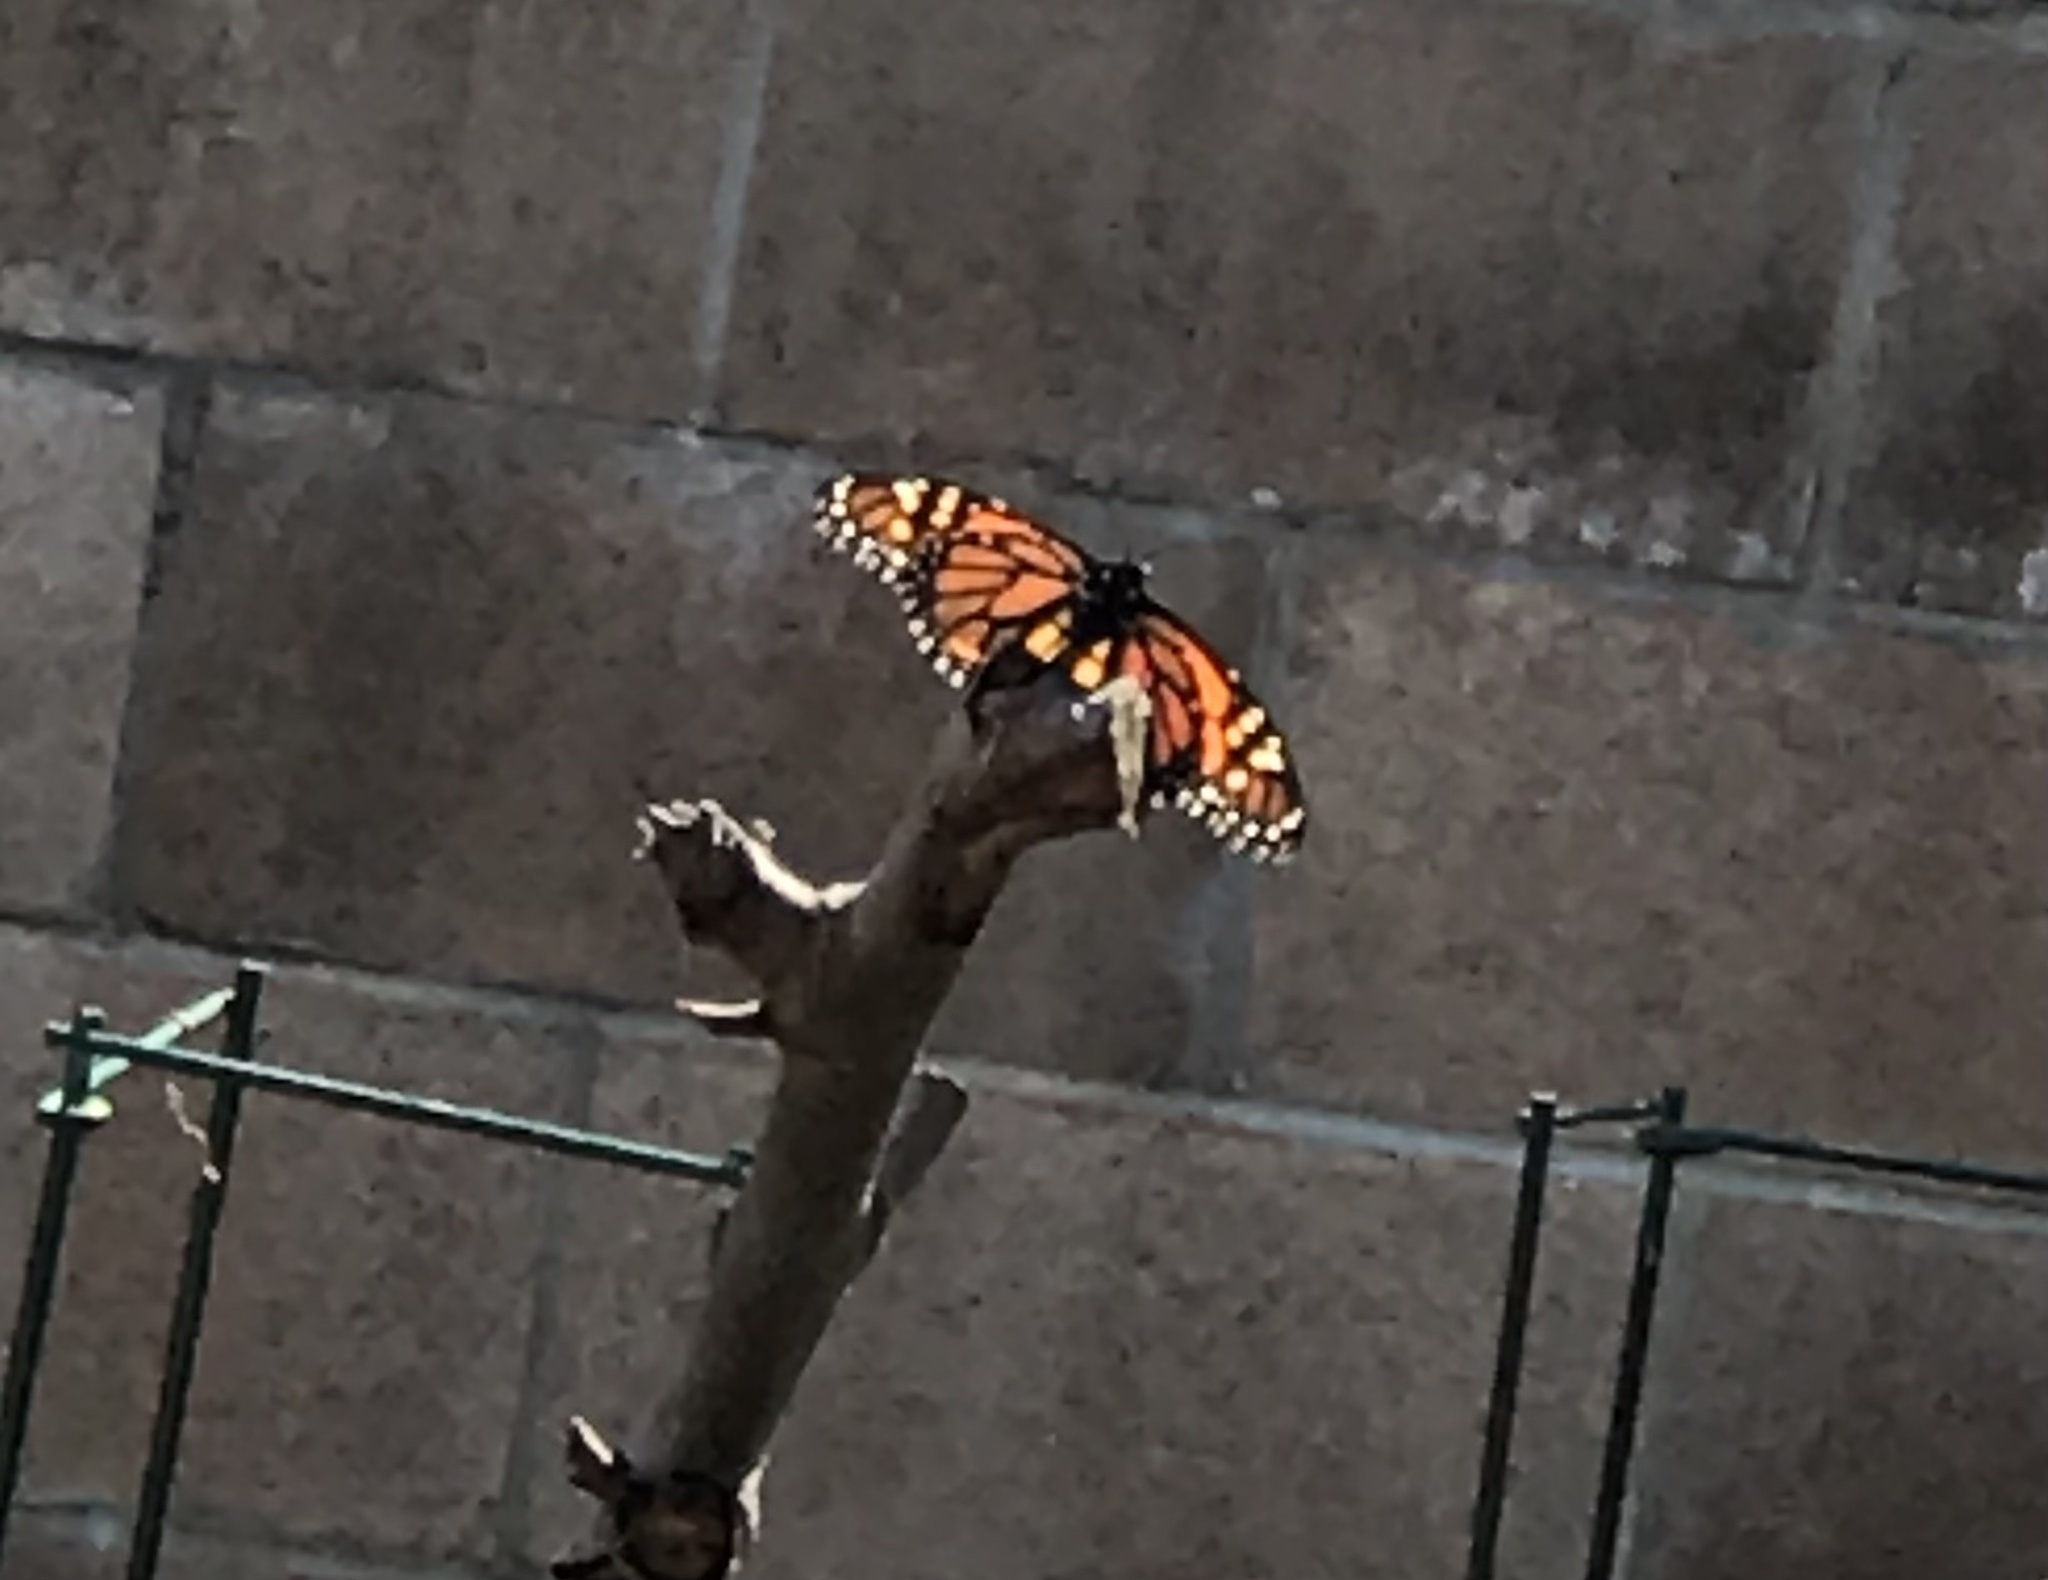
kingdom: Animalia
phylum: Arthropoda
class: Insecta
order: Lepidoptera
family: Nymphalidae
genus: Danaus
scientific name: Danaus plexippus
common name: Monarch
